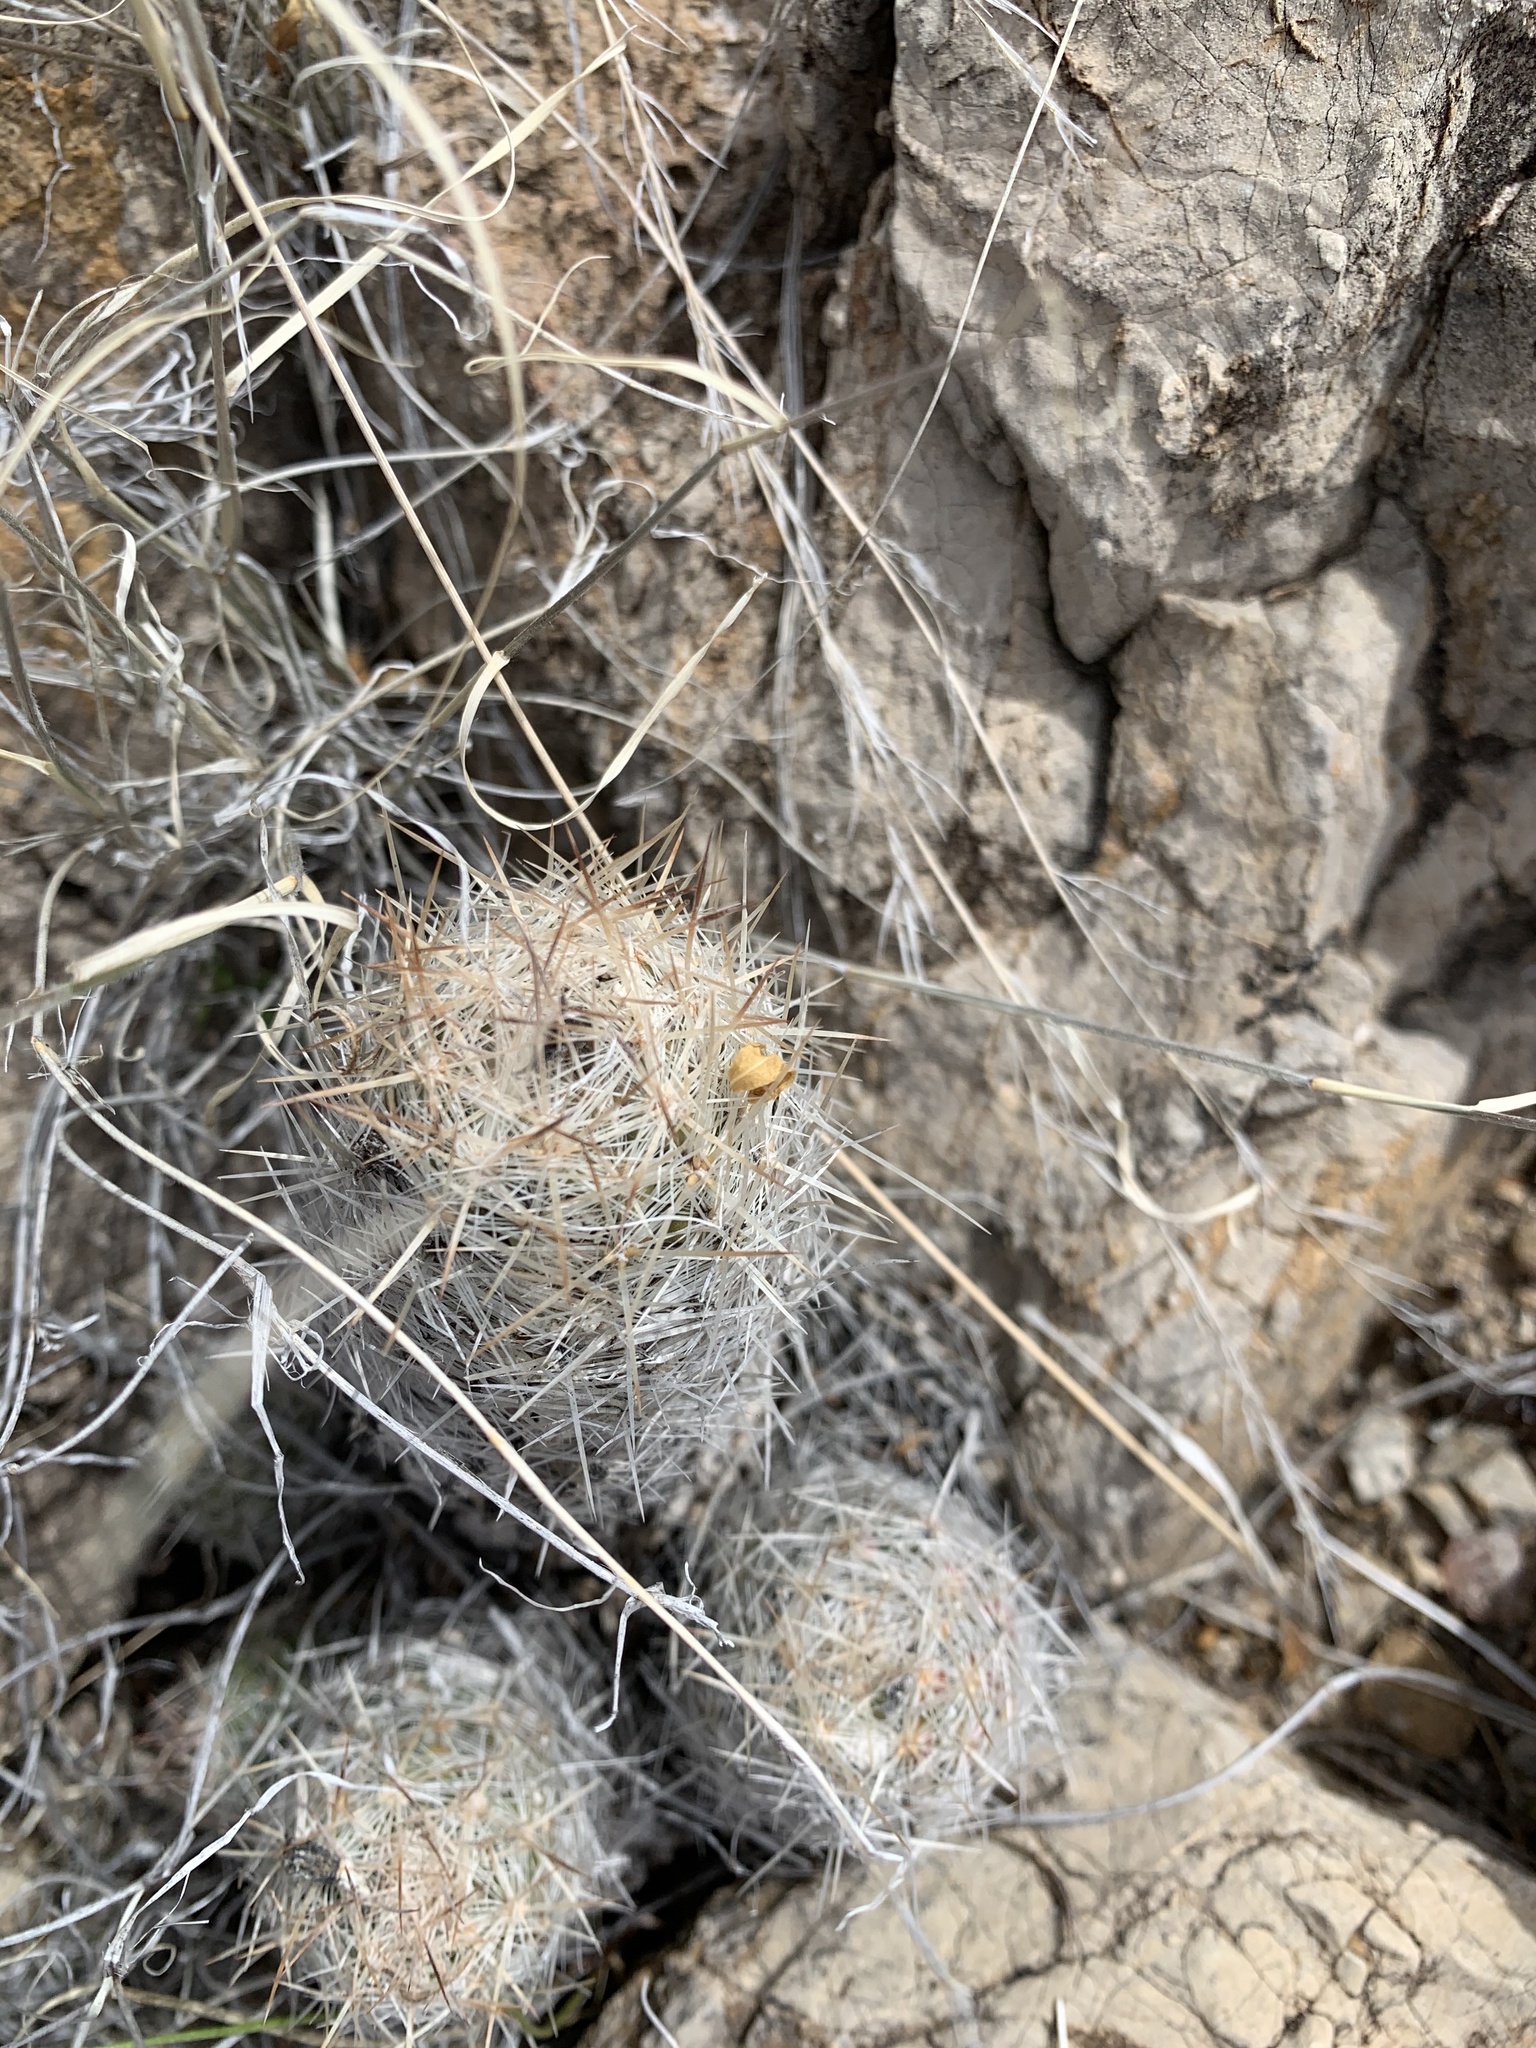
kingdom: Plantae
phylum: Tracheophyta
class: Magnoliopsida
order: Caryophyllales
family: Cactaceae
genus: Pelecyphora
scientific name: Pelecyphora tuberculosa
